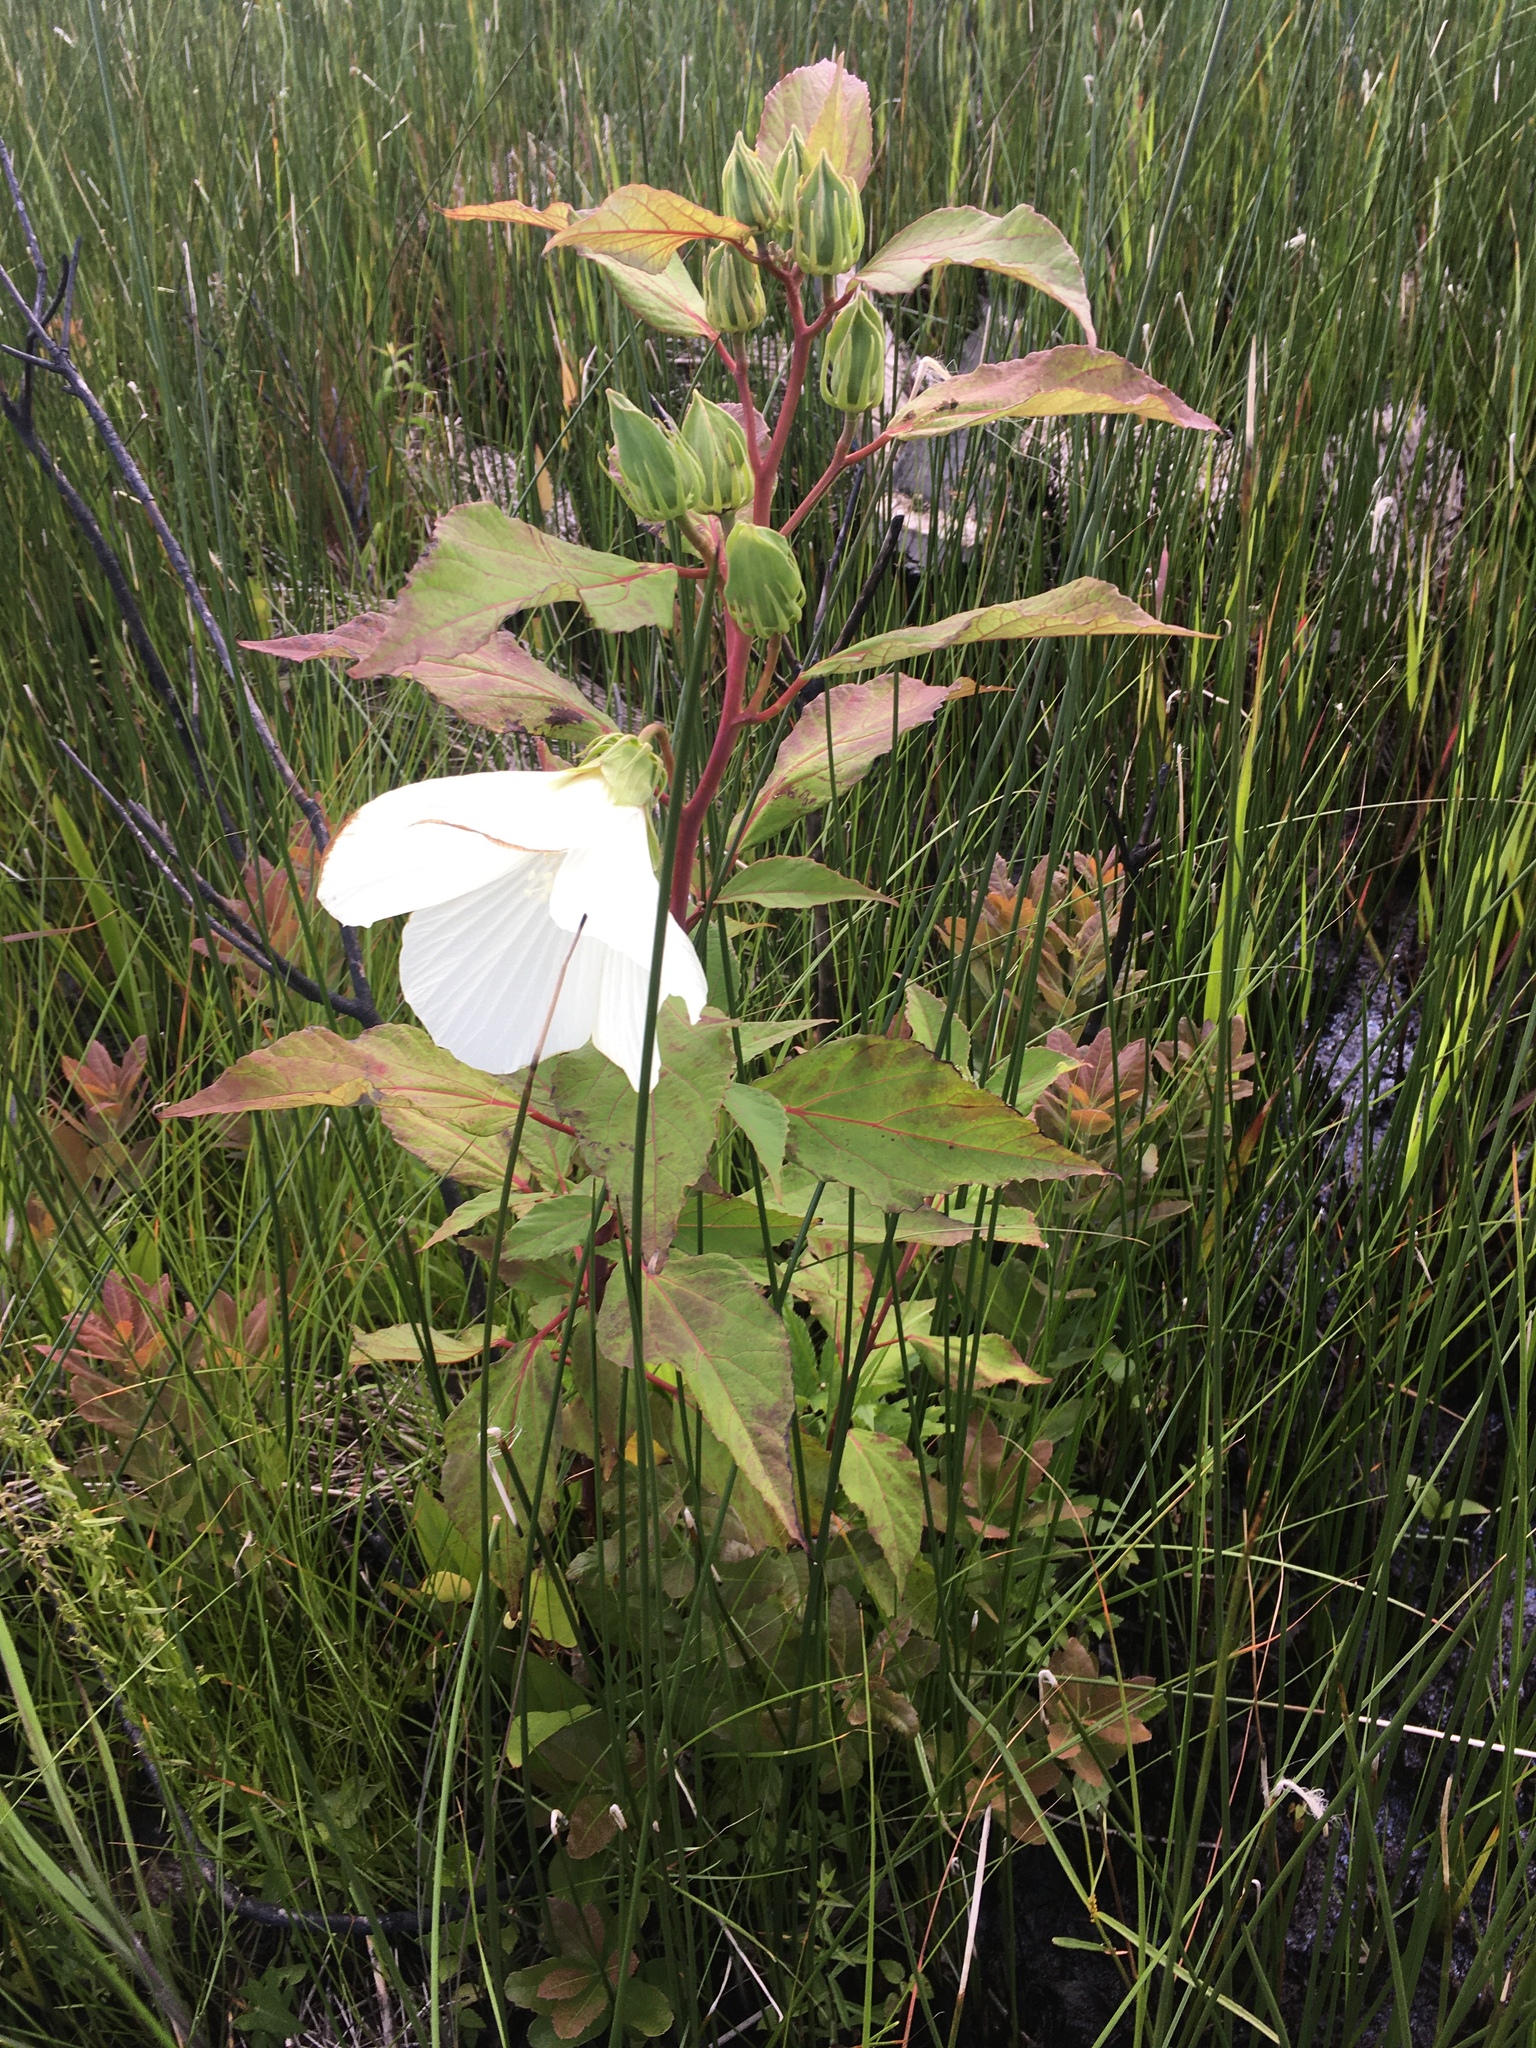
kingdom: Plantae
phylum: Tracheophyta
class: Magnoliopsida
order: Malvales
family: Malvaceae
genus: Hibiscus
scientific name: Hibiscus moscheutos
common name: Common rose-mallow
